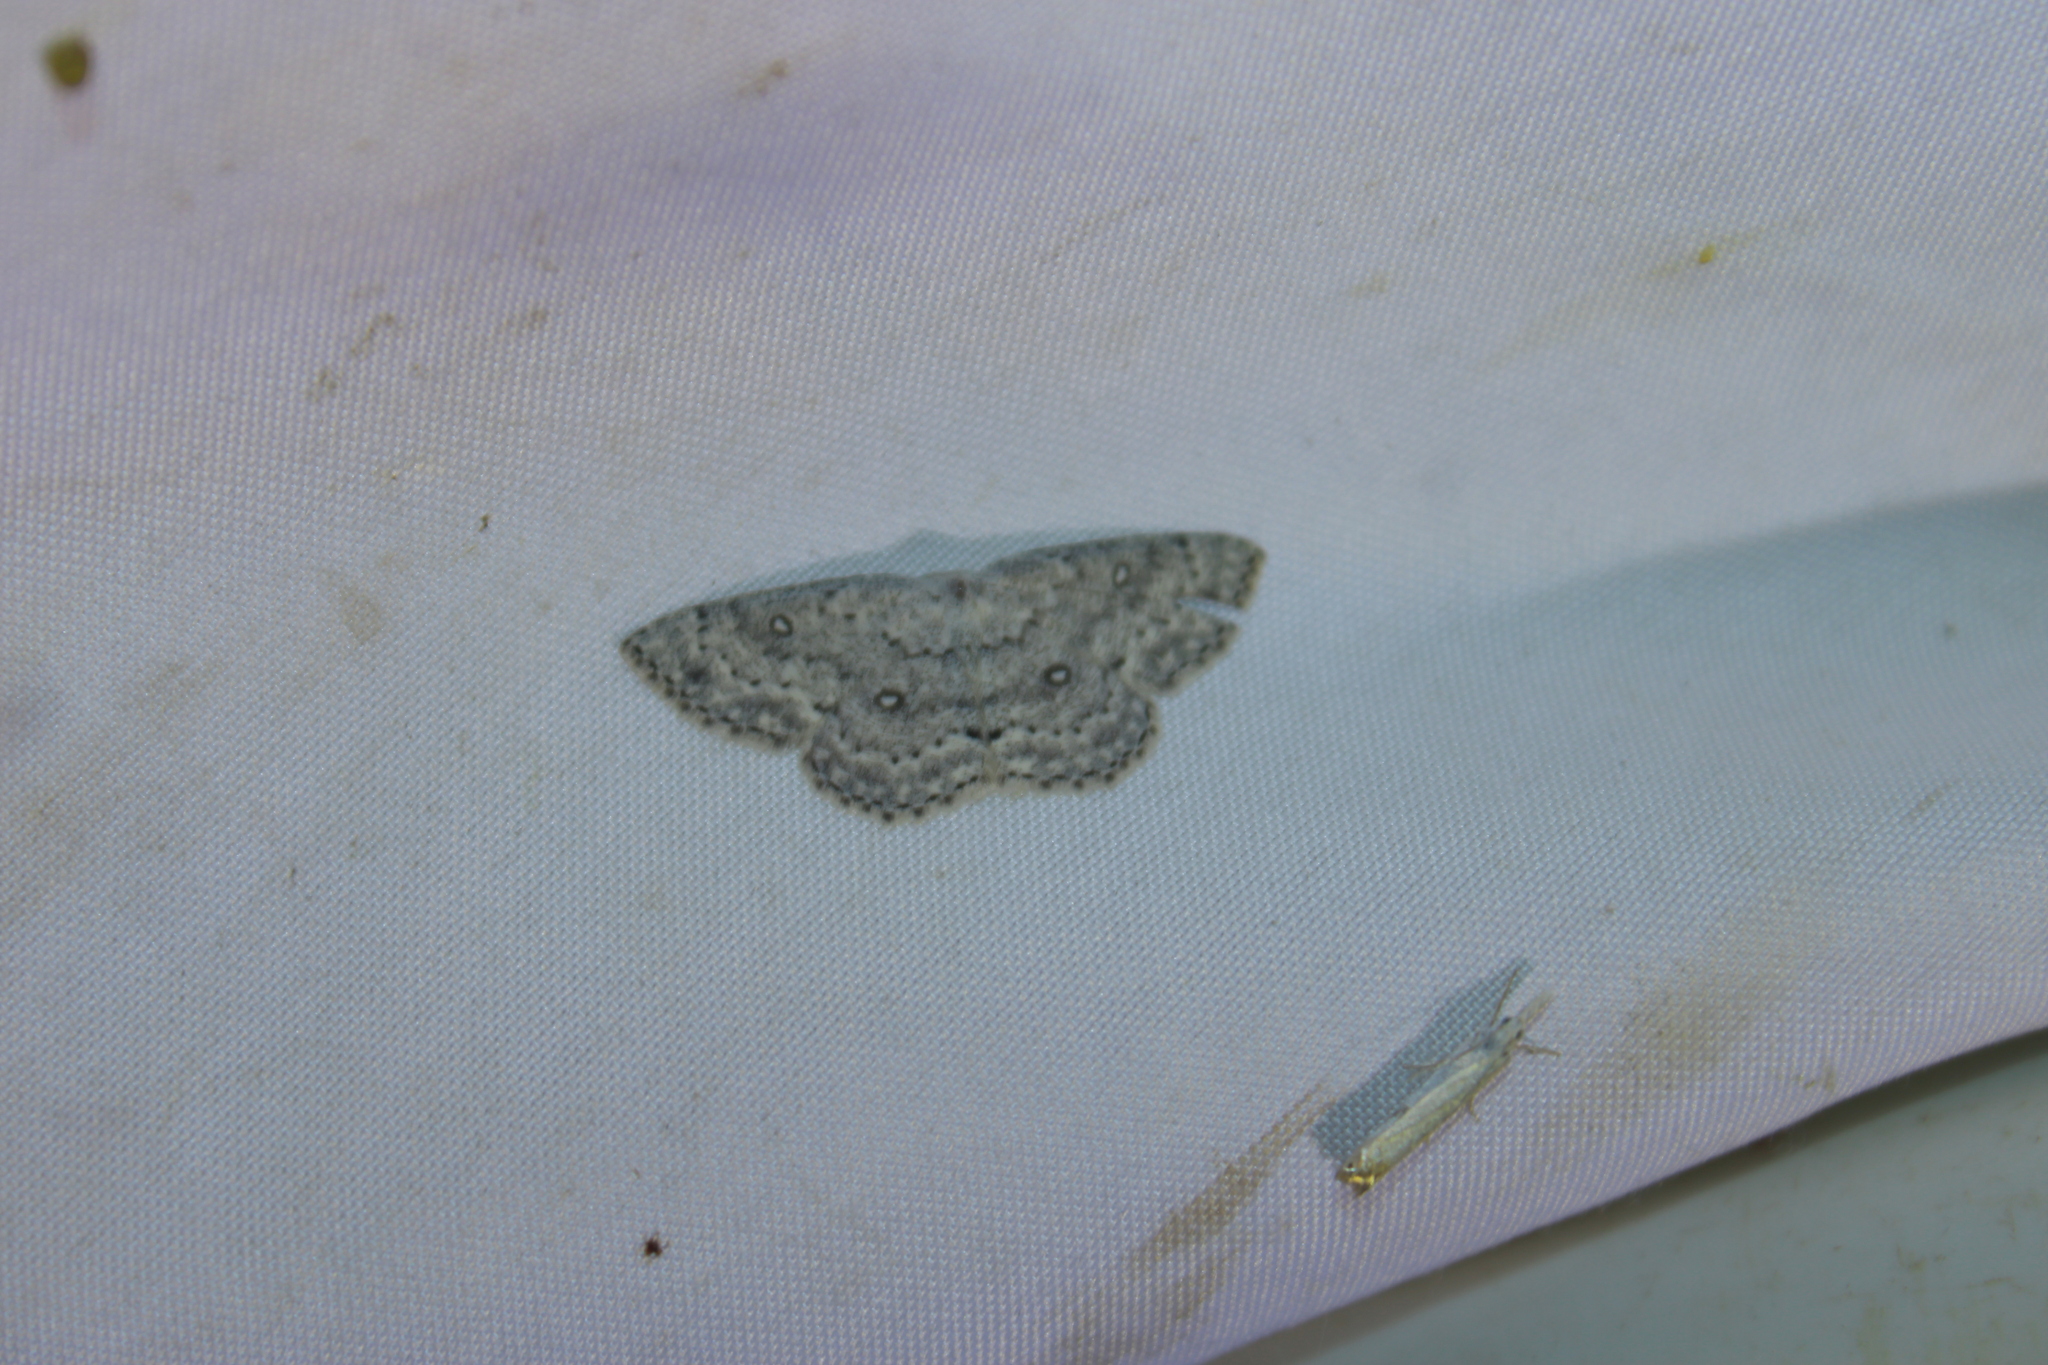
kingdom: Animalia
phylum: Arthropoda
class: Insecta
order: Lepidoptera
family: Geometridae
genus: Cyclophora
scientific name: Cyclophora pendulinaria
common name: Sweet fern geometer
